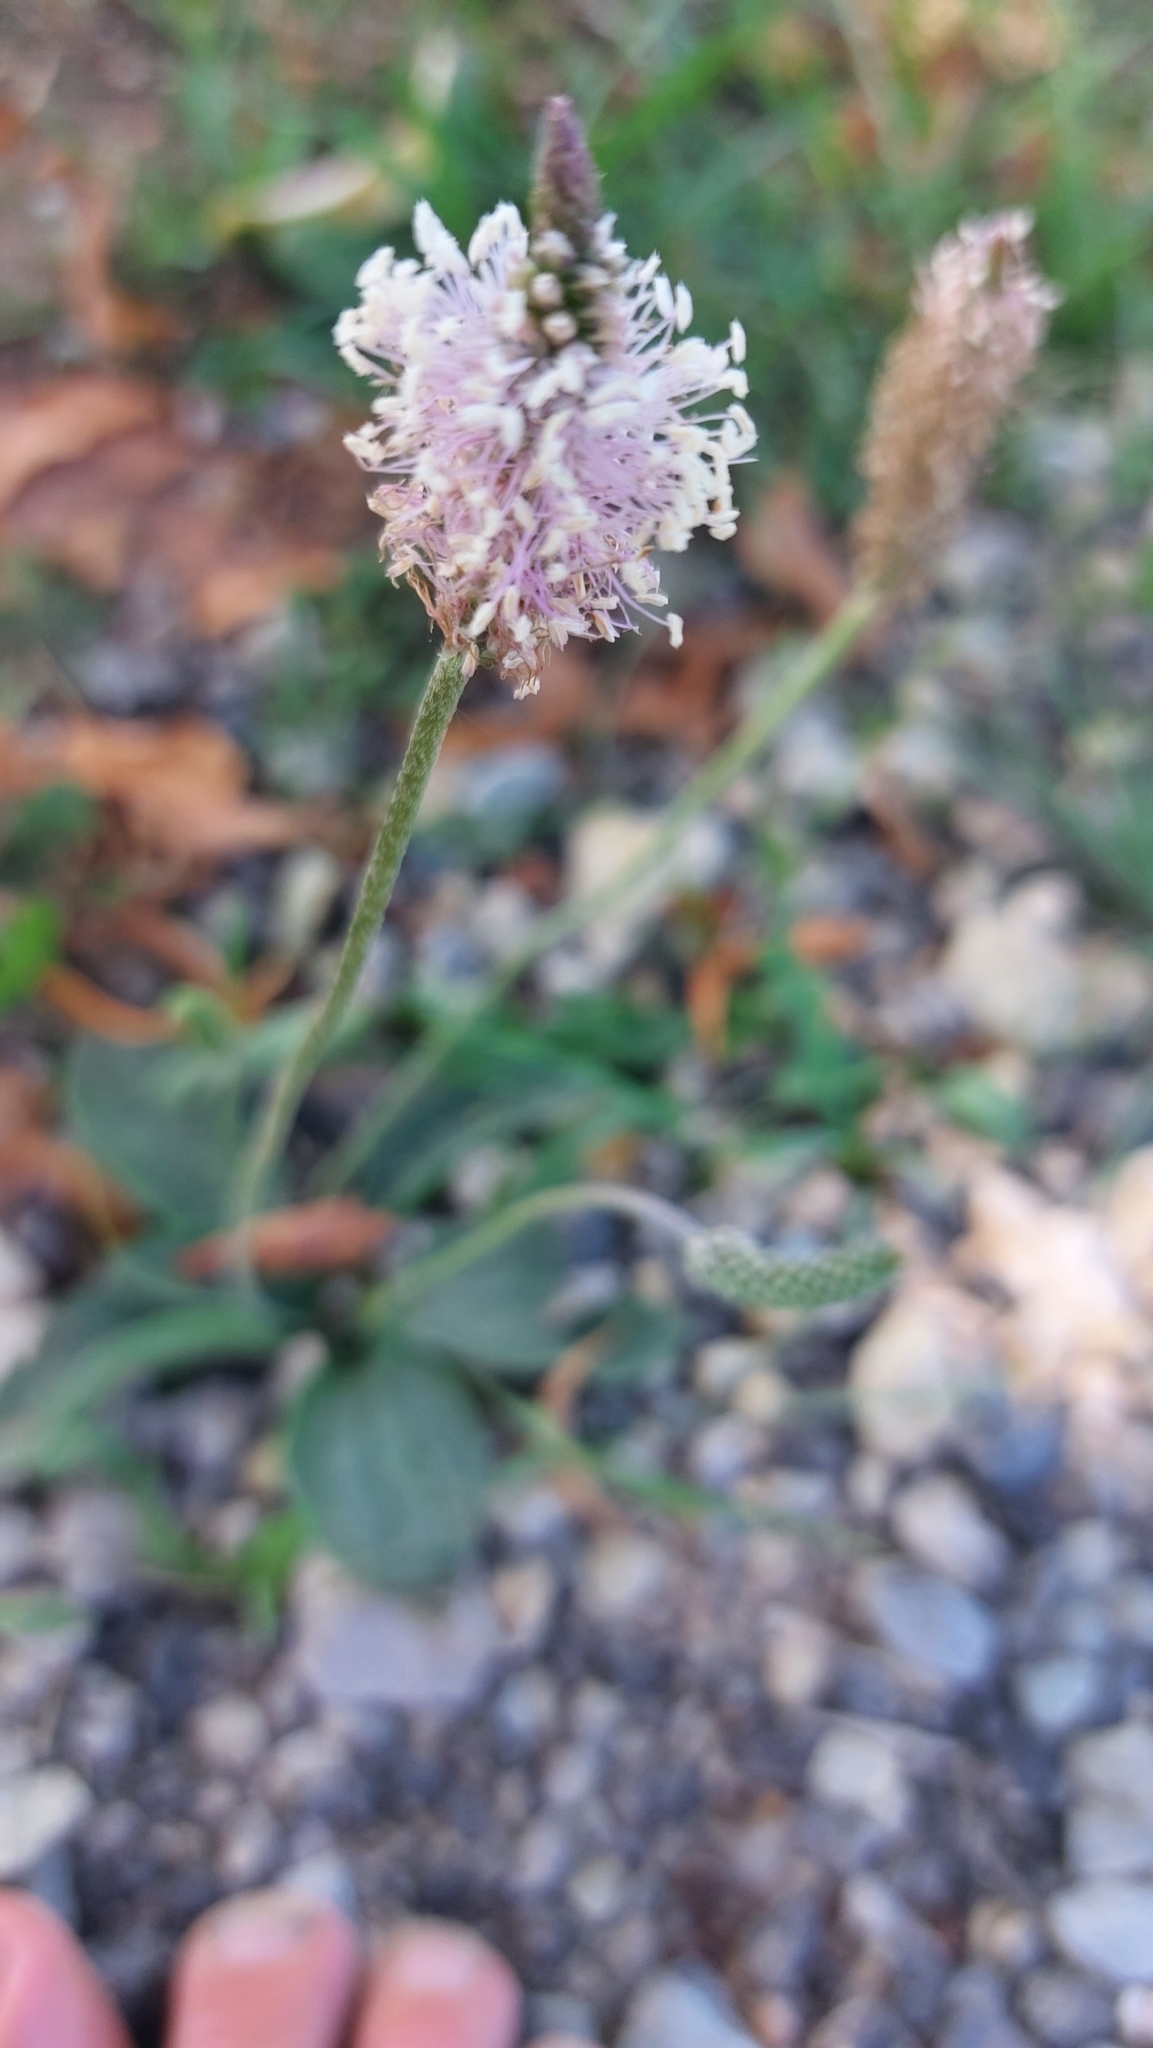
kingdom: Plantae
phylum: Tracheophyta
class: Magnoliopsida
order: Lamiales
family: Plantaginaceae
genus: Plantago
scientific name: Plantago media
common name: Hoary plantain
